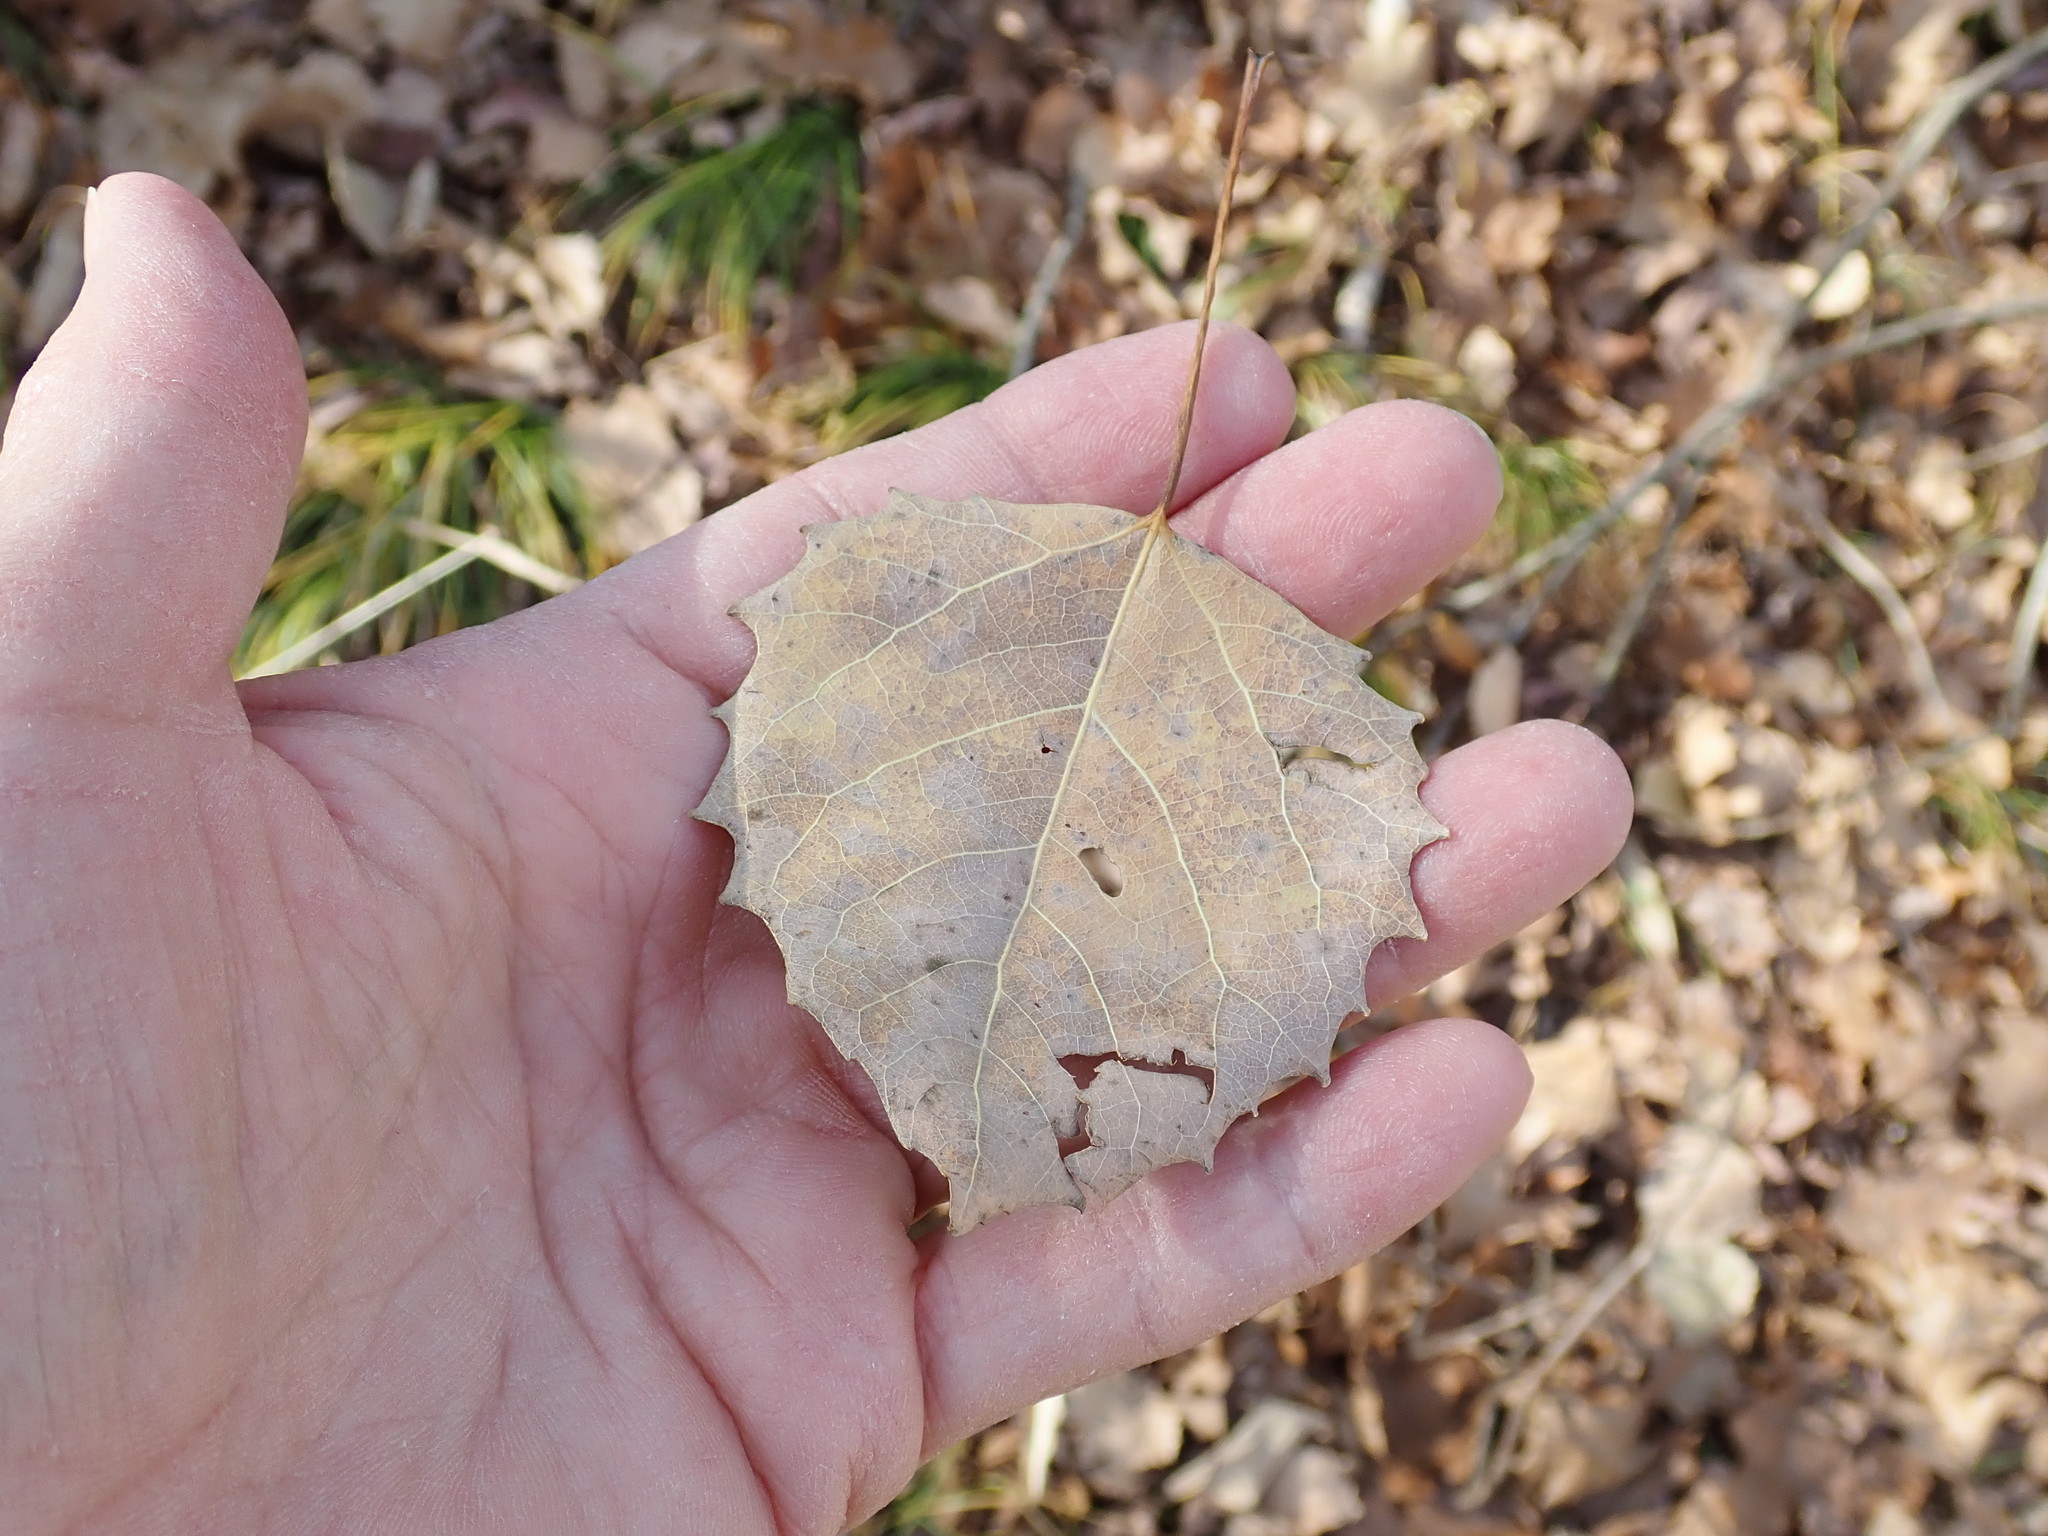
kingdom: Plantae
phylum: Tracheophyta
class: Magnoliopsida
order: Malpighiales
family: Salicaceae
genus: Populus
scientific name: Populus grandidentata
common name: Bigtooth aspen
